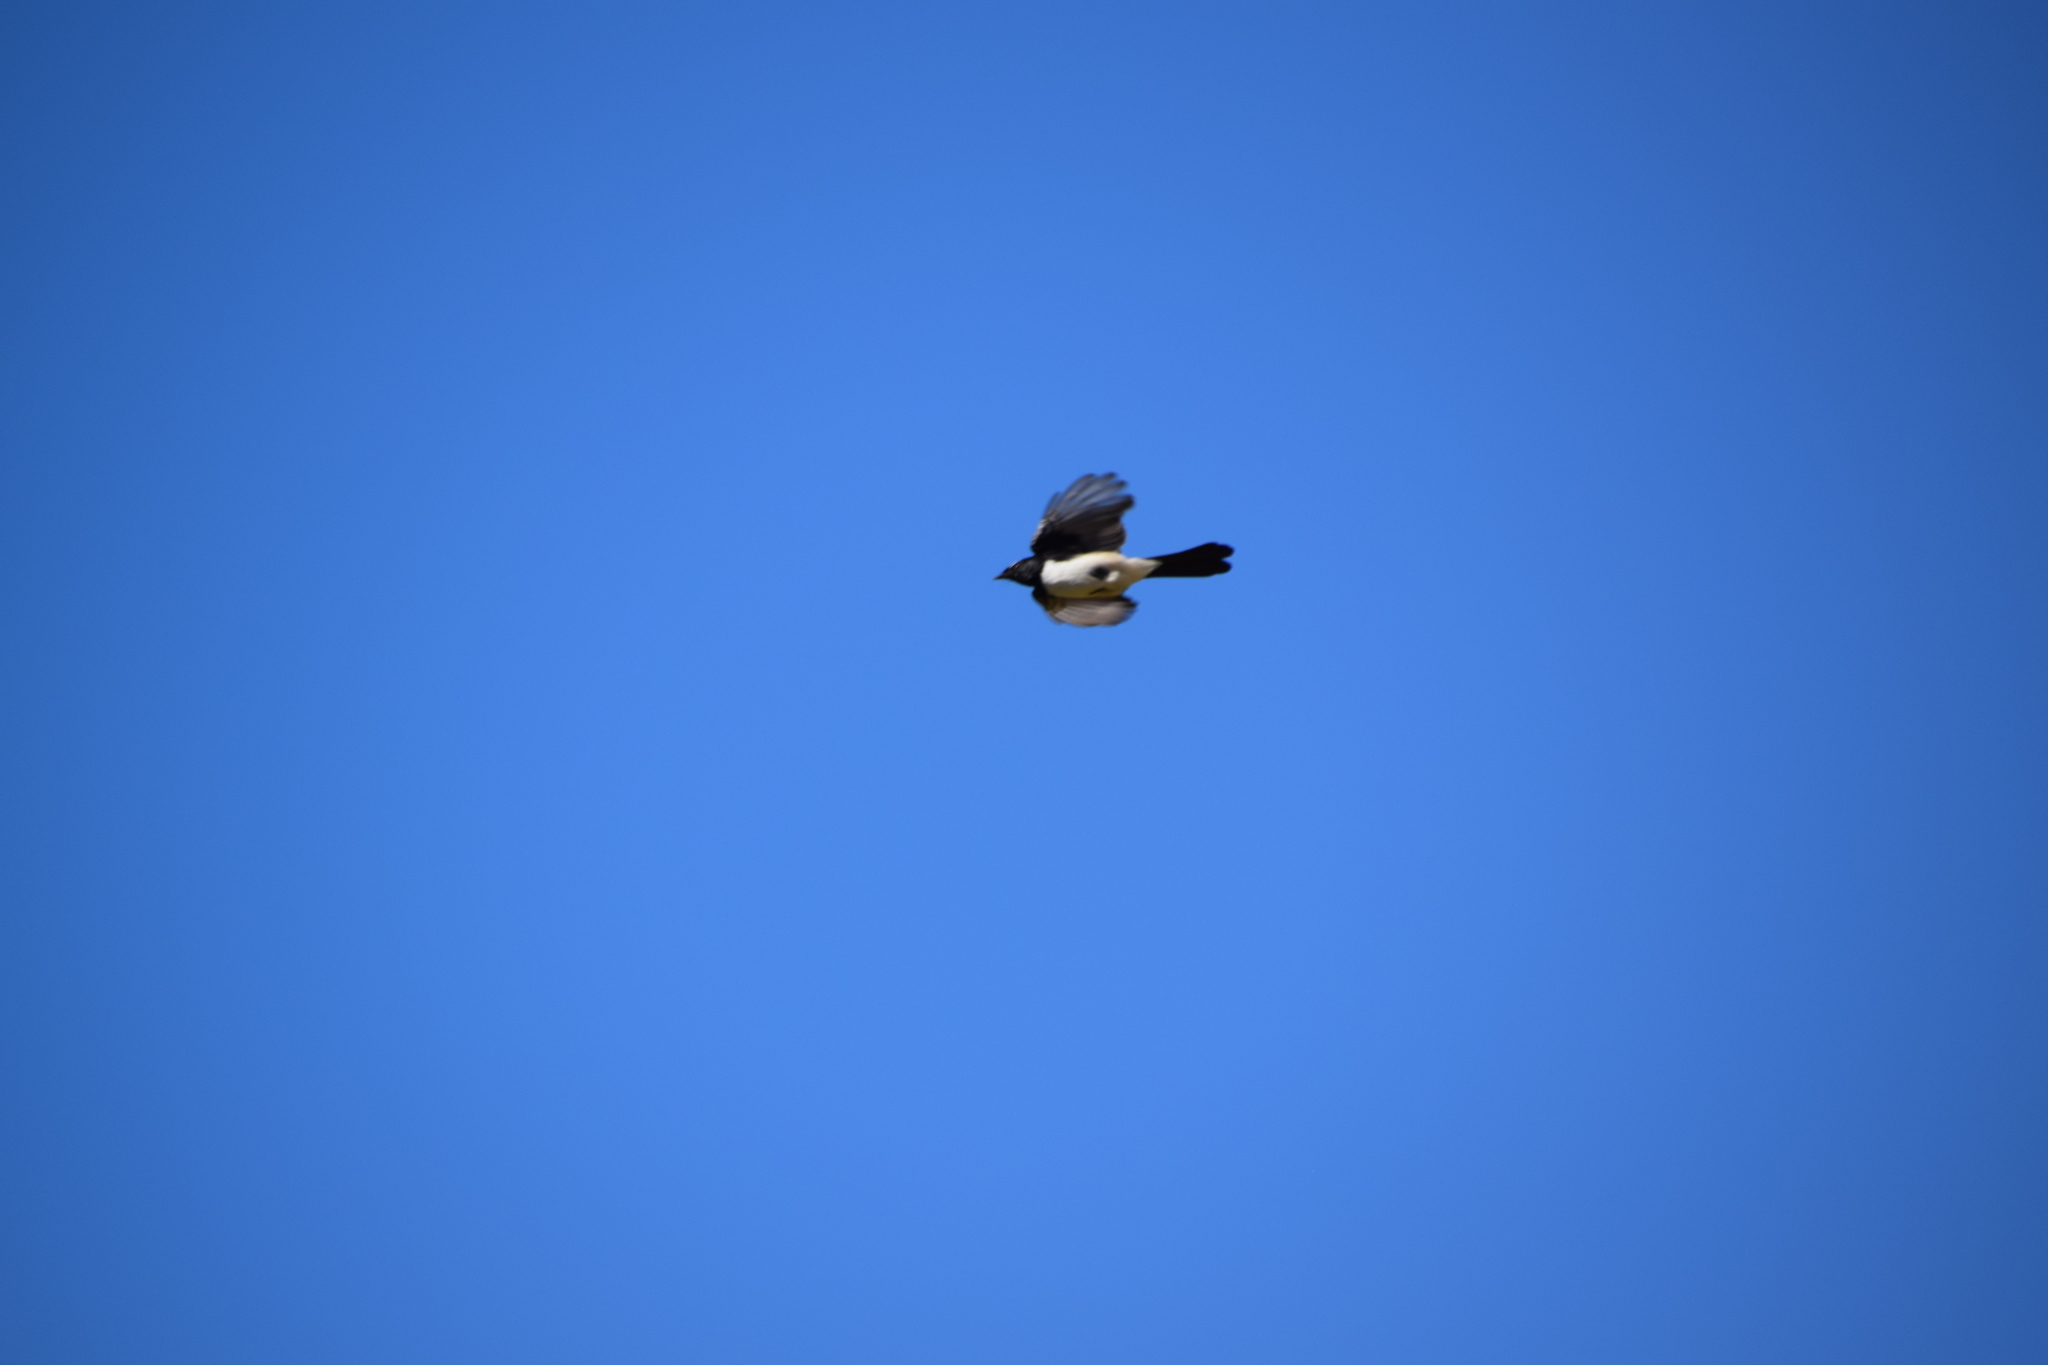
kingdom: Animalia
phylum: Chordata
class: Aves
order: Passeriformes
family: Rhipiduridae
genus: Rhipidura
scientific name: Rhipidura leucophrys
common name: Willie wagtail
